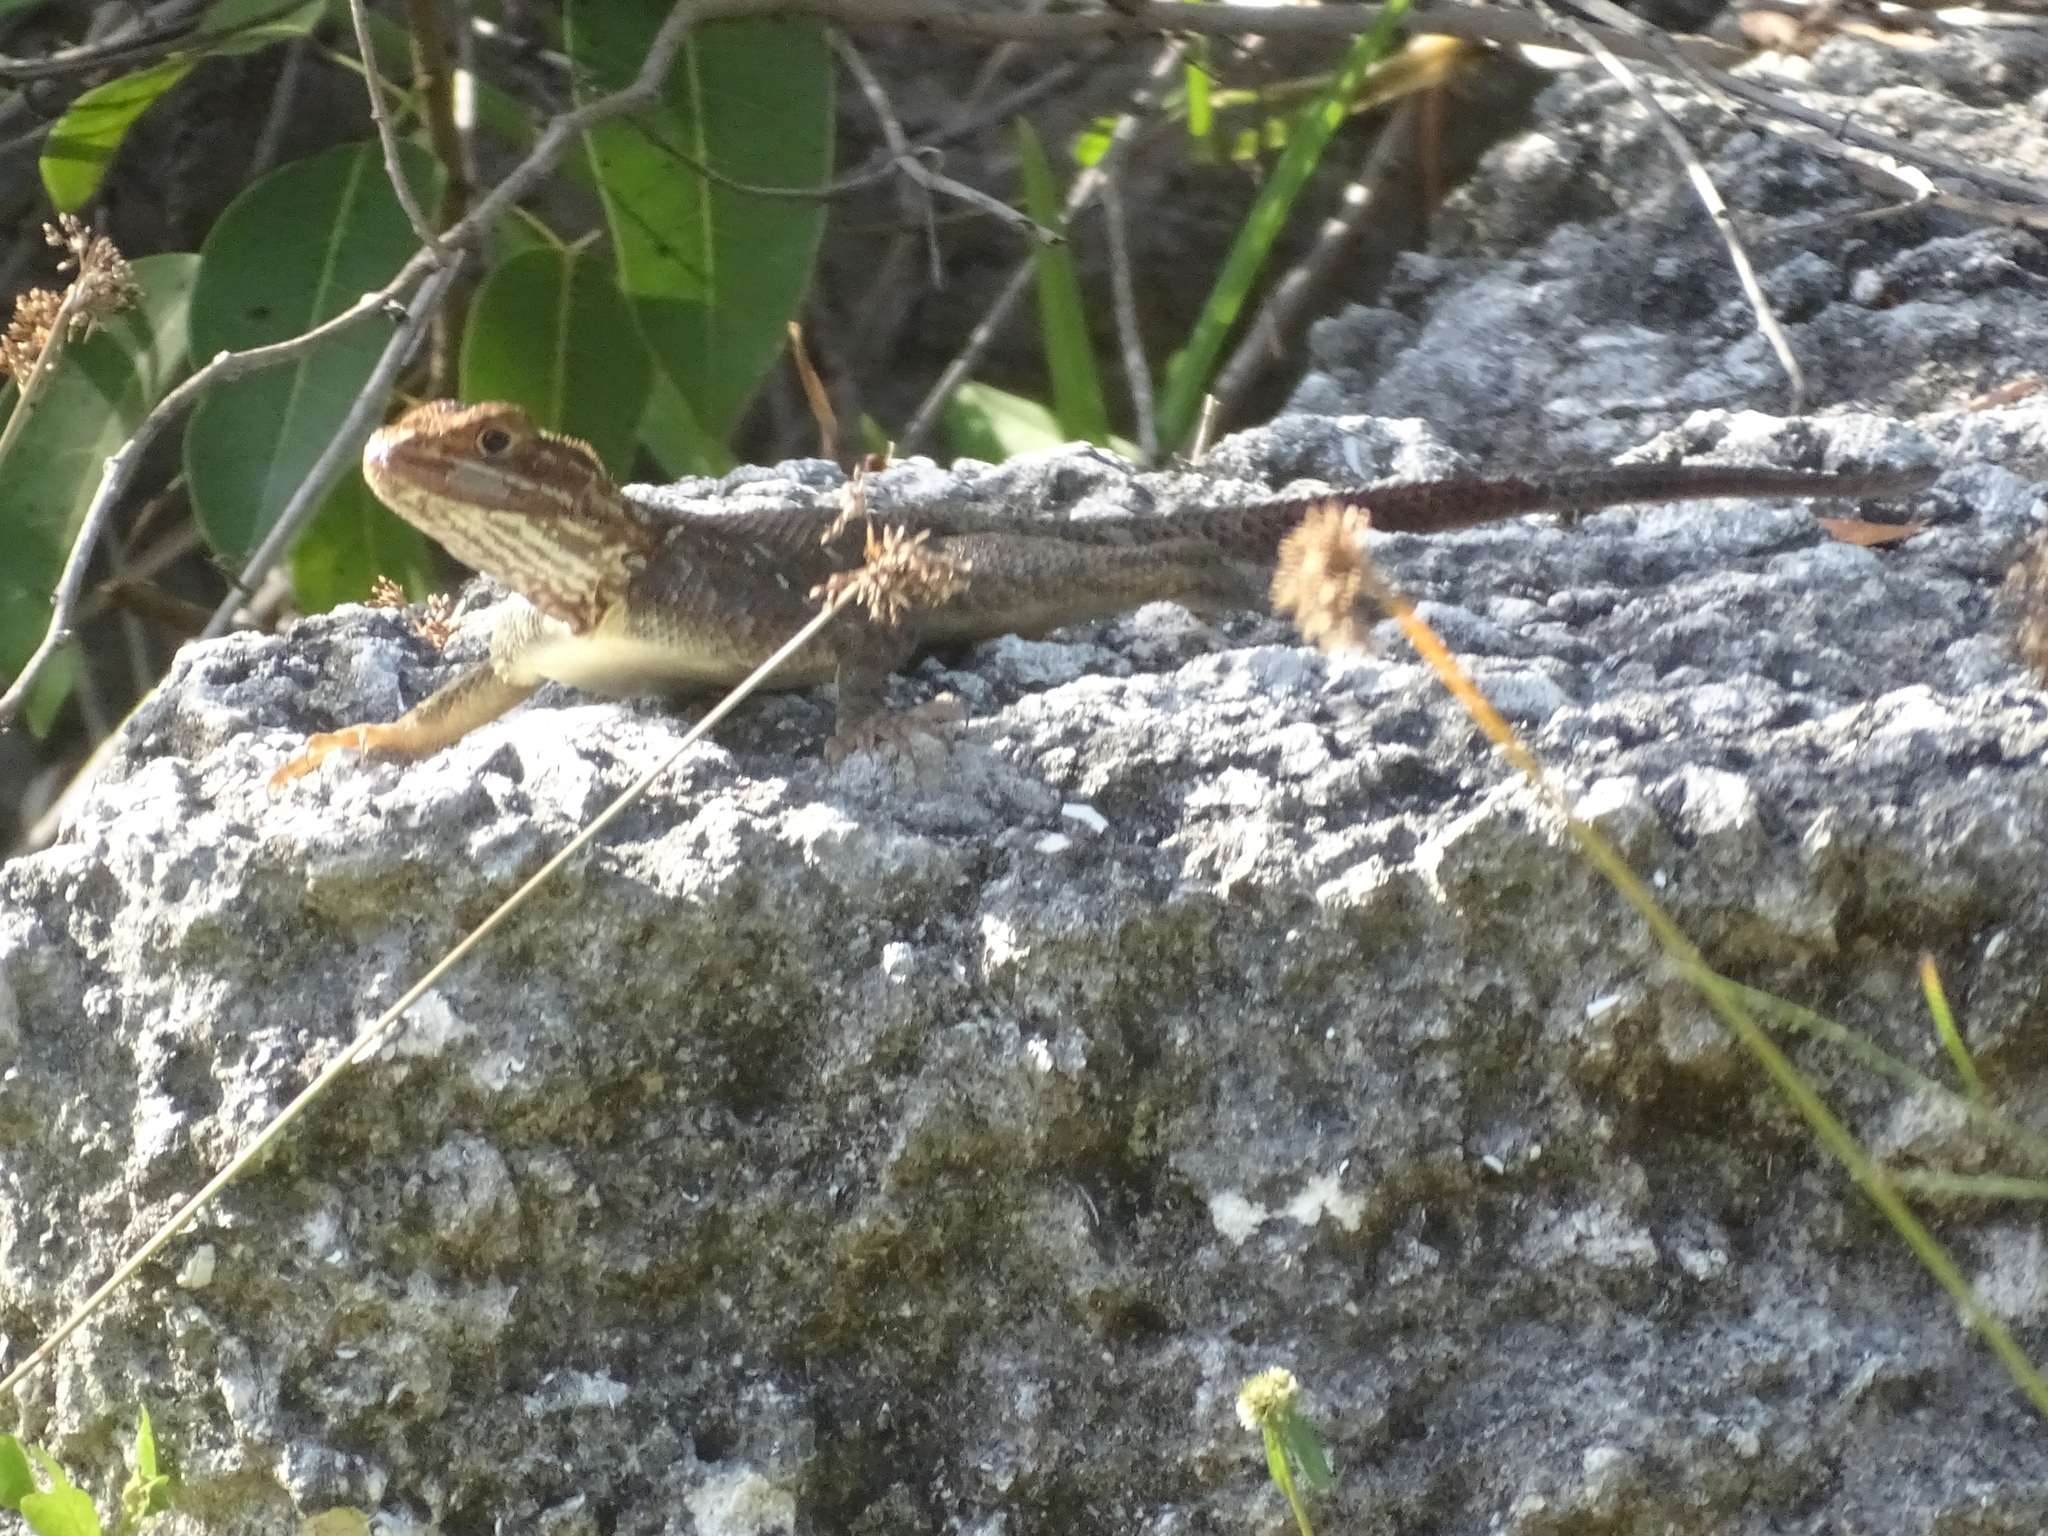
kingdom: Animalia
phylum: Chordata
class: Squamata
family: Agamidae
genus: Agama
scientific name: Agama picticauda
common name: Red-headed agama
